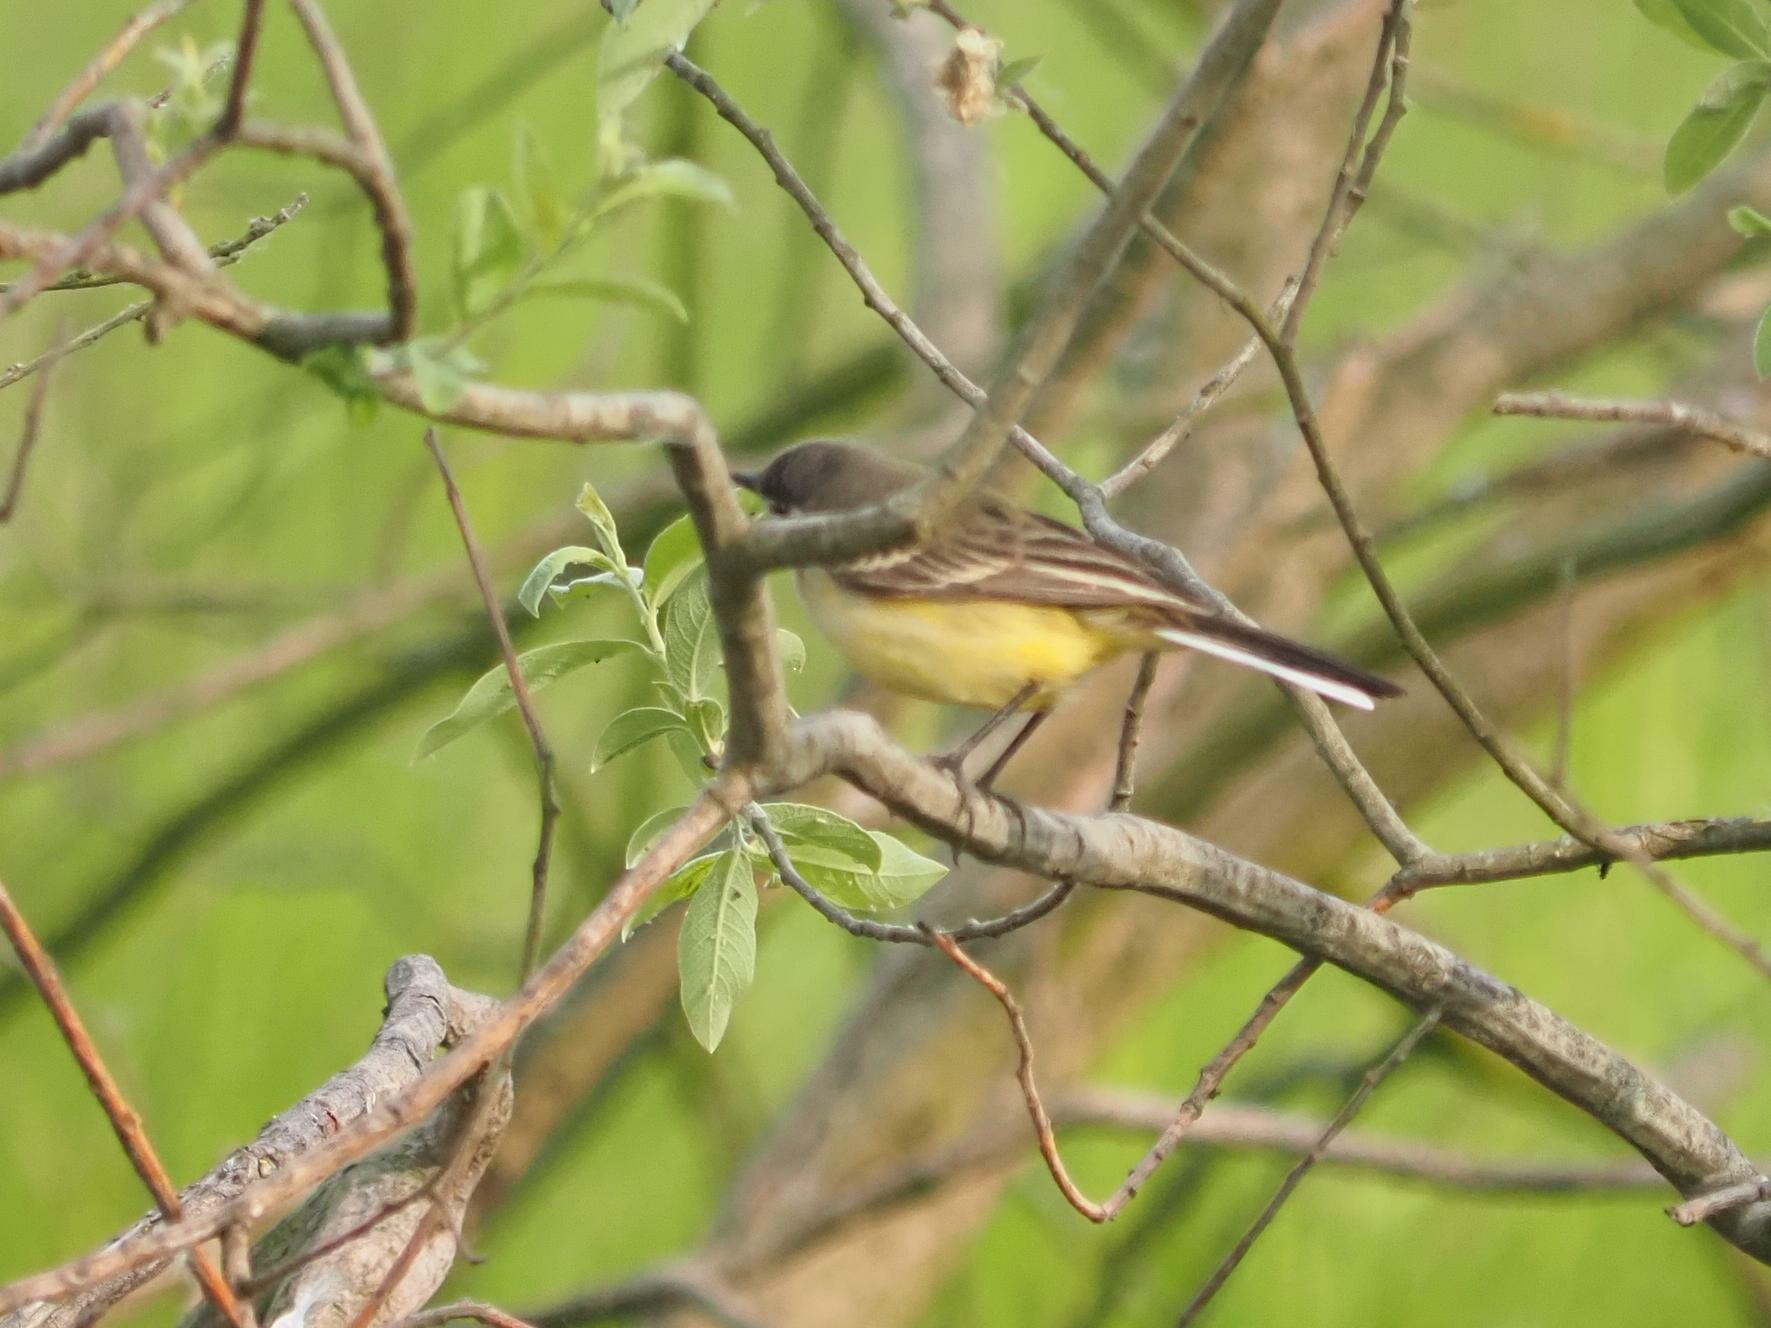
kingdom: Animalia
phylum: Chordata
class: Aves
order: Passeriformes
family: Motacillidae
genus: Motacilla
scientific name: Motacilla flava
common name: Western yellow wagtail
